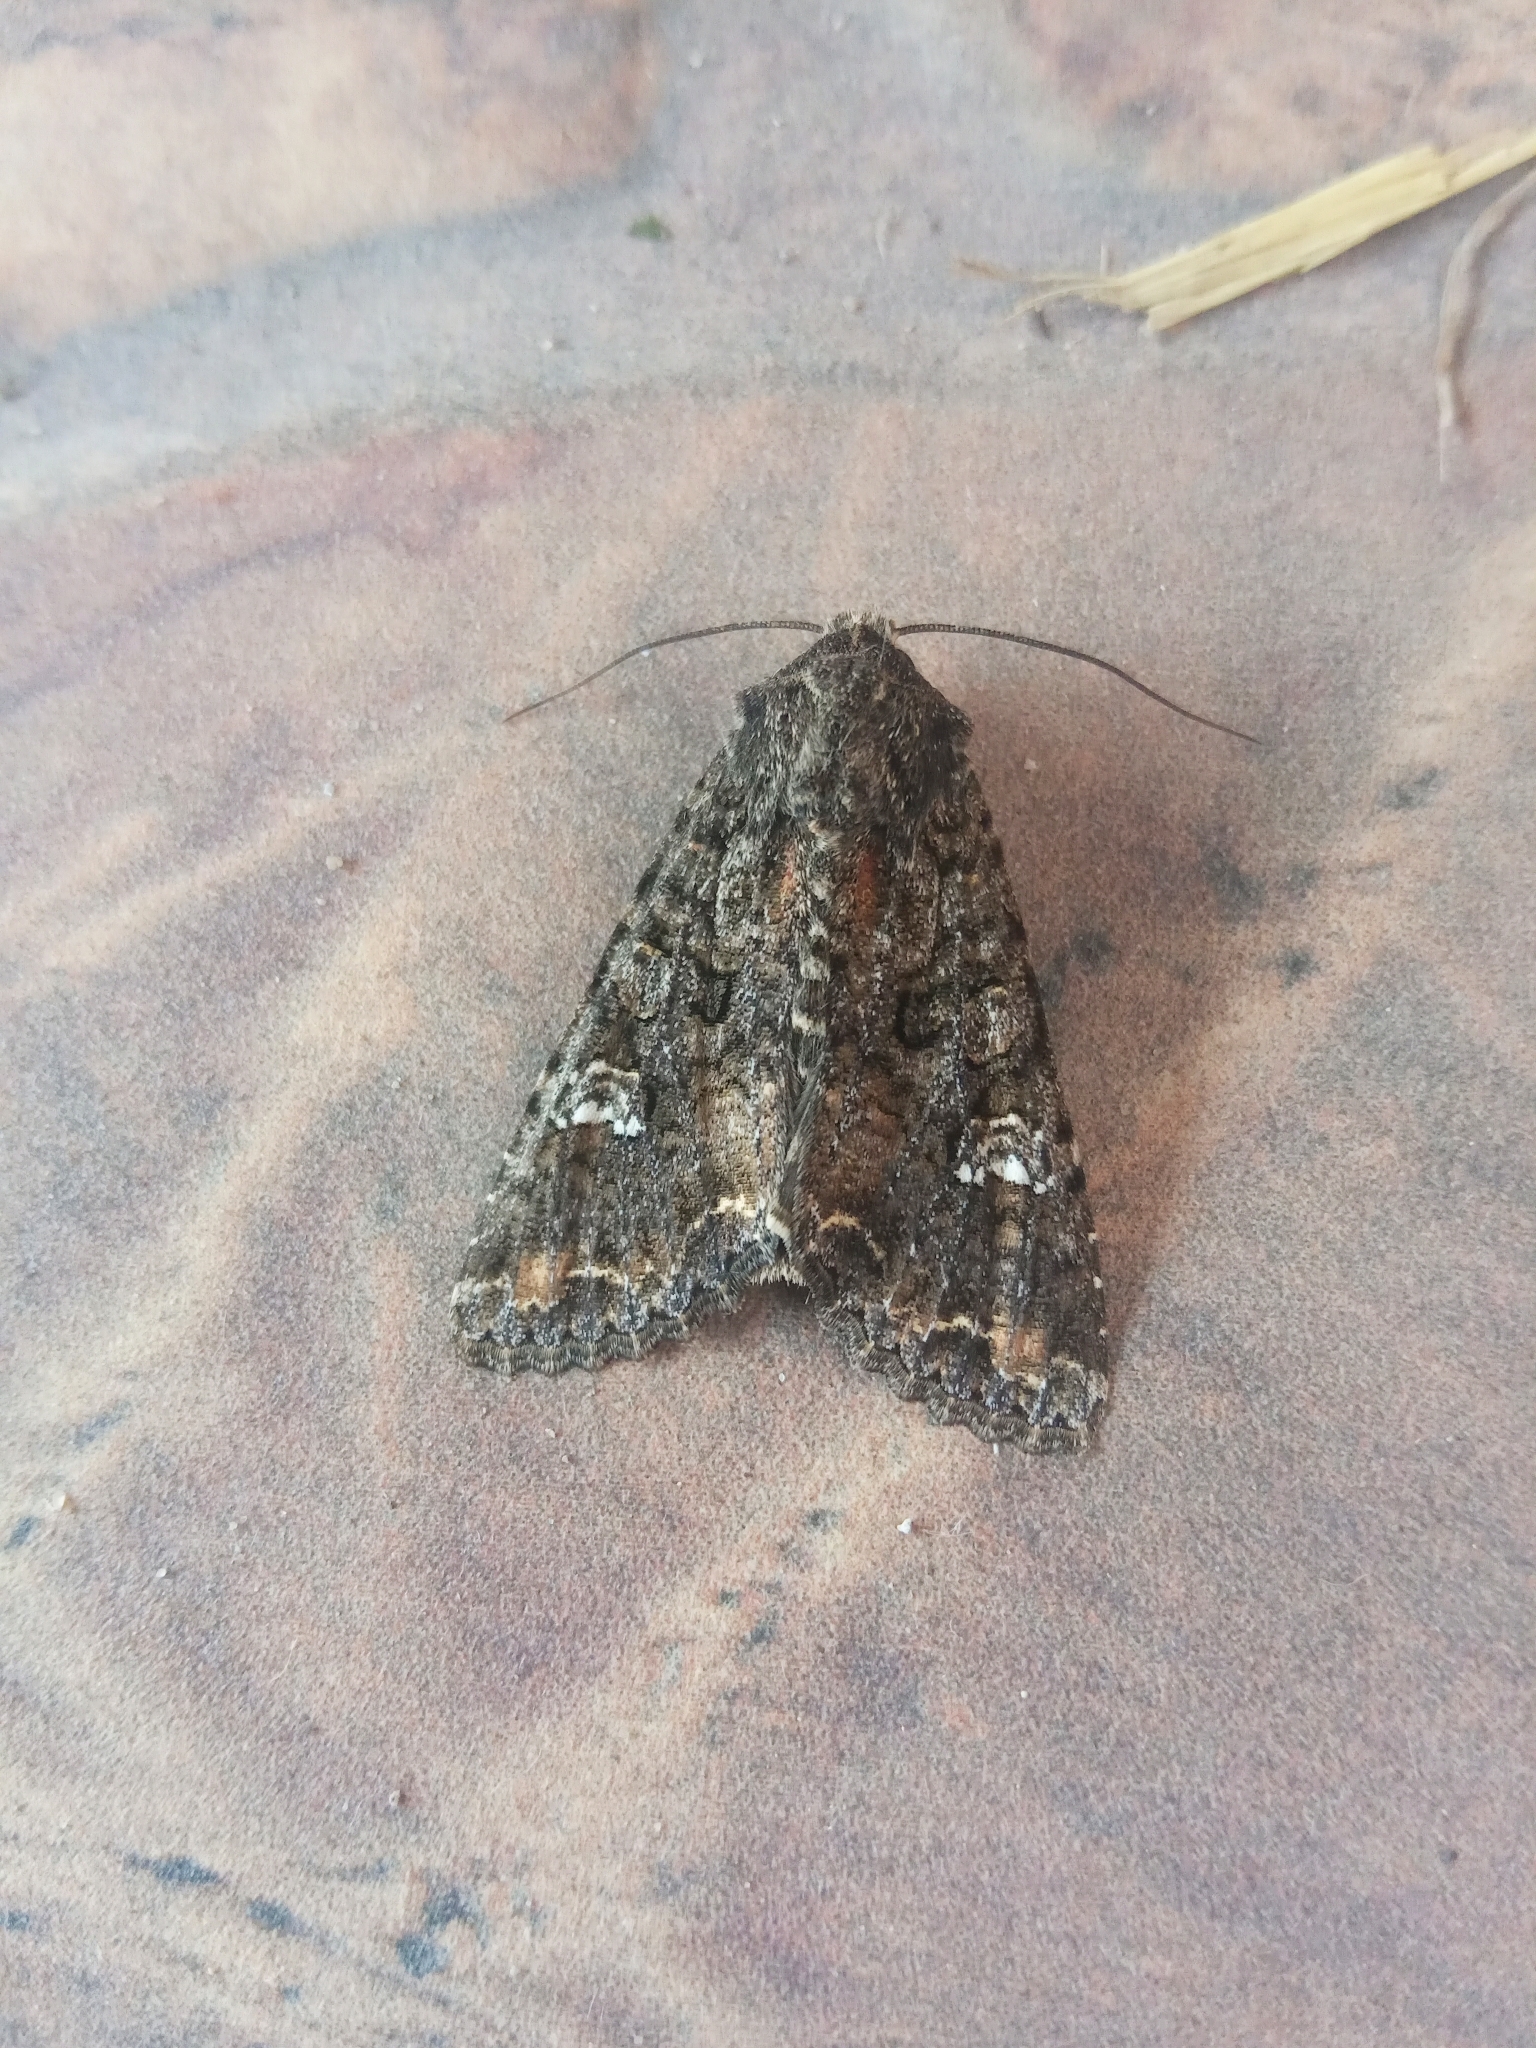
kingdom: Animalia
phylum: Arthropoda
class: Insecta
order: Lepidoptera
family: Noctuidae
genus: Mamestra
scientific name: Mamestra brassicae
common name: Cabbage moth
